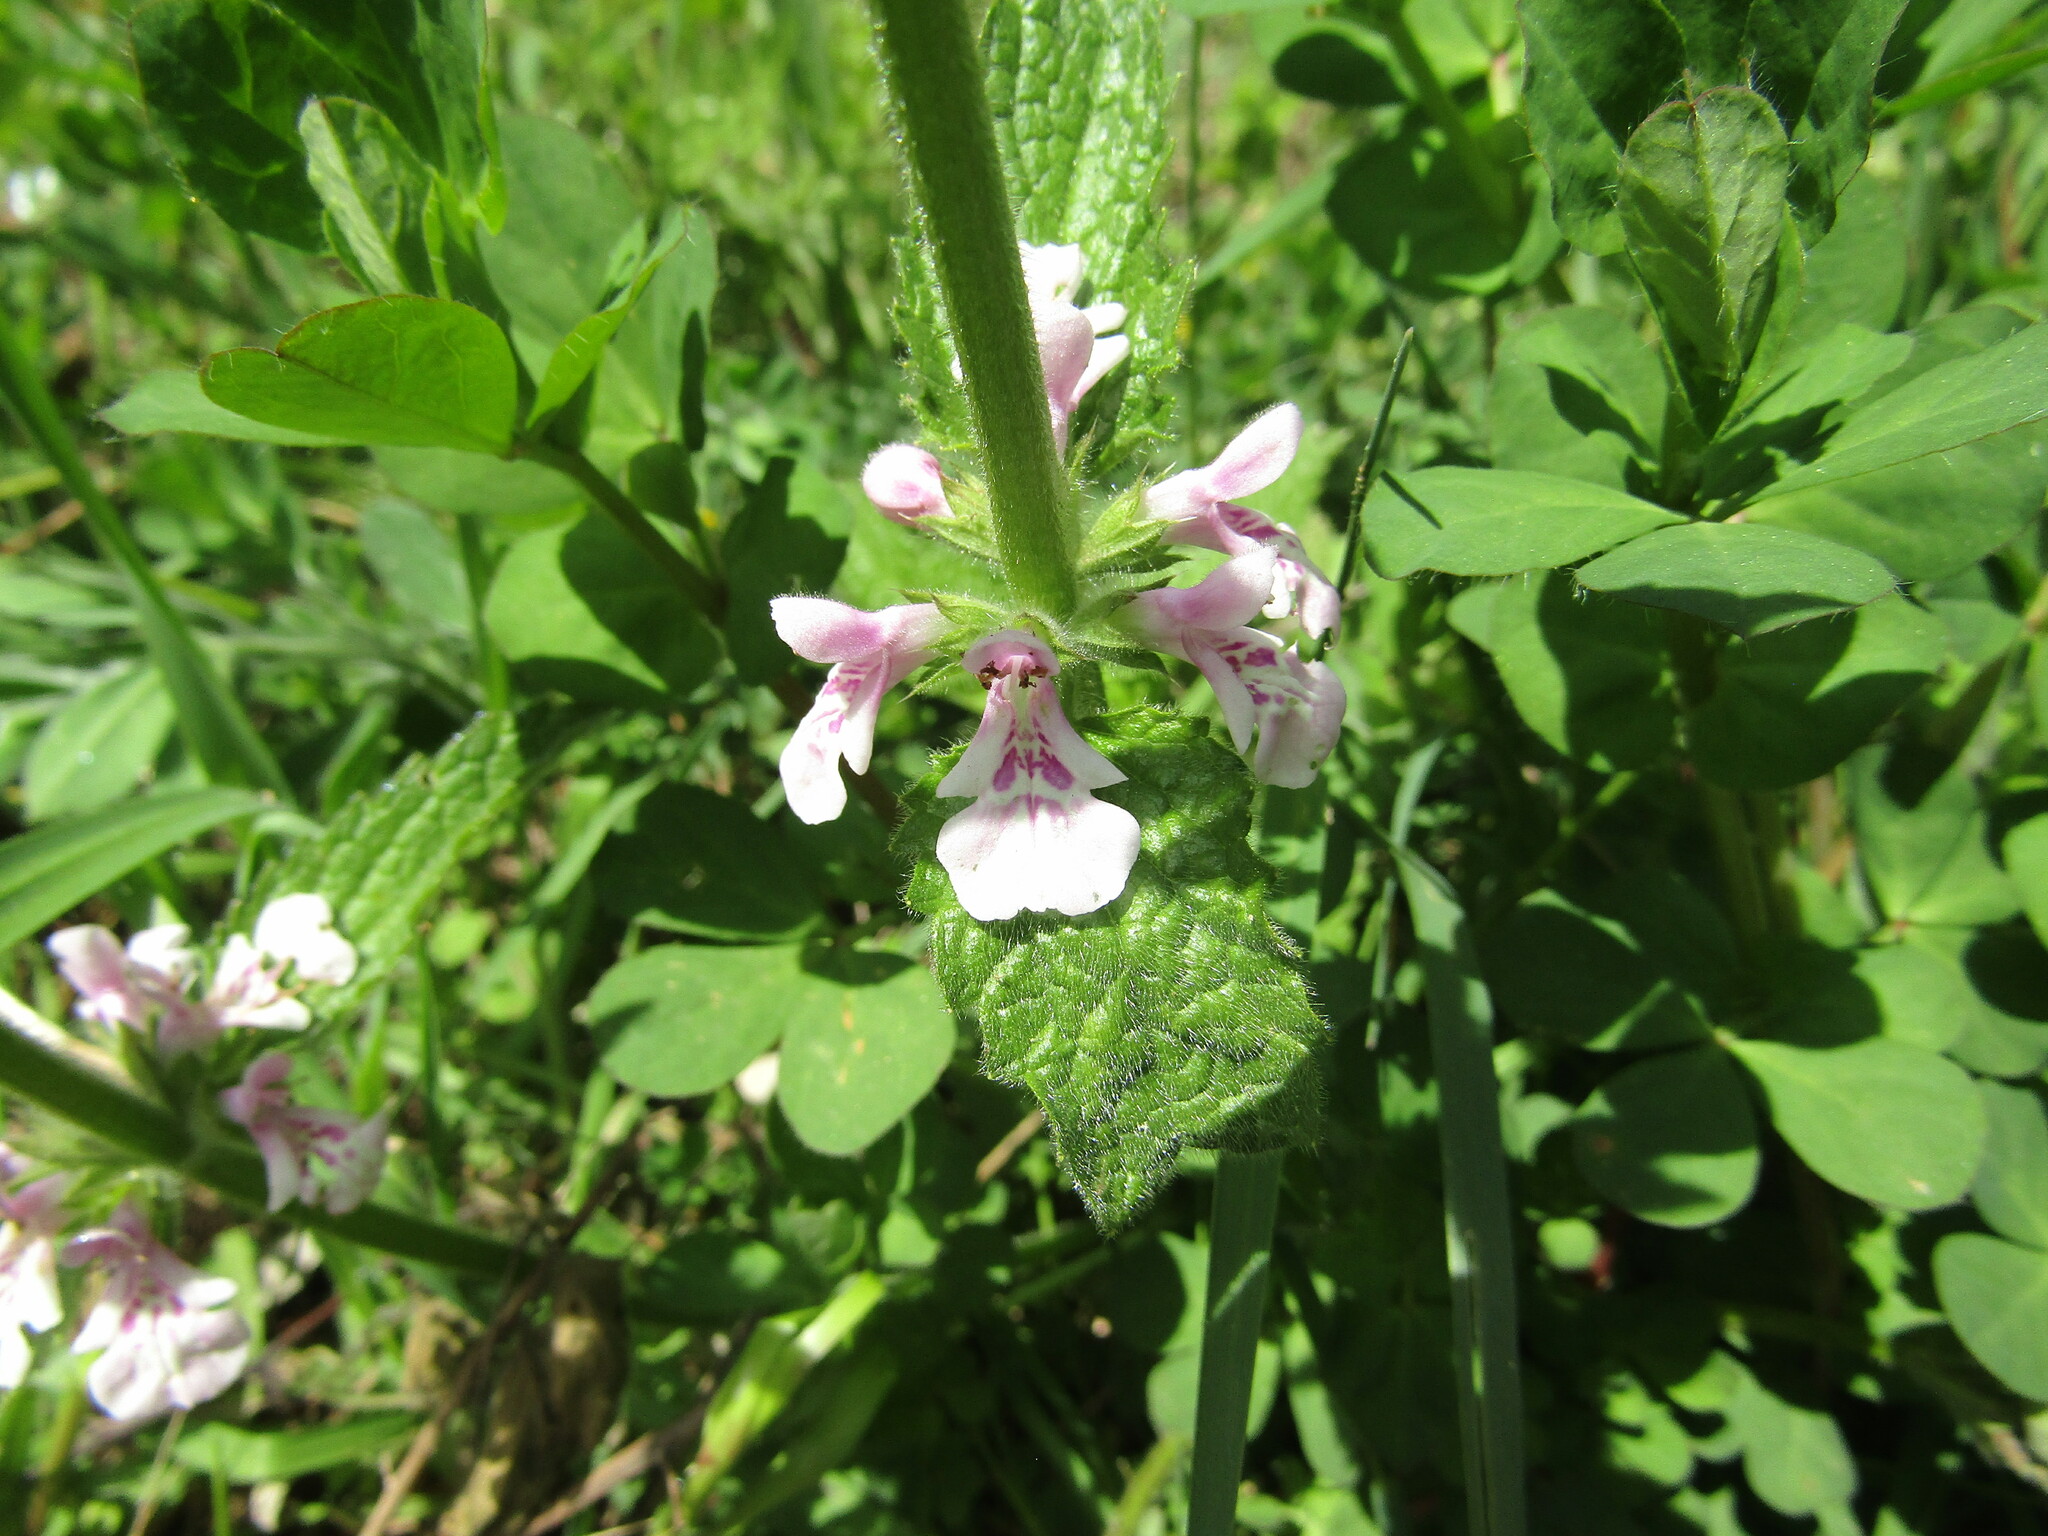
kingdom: Plantae
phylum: Tracheophyta
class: Magnoliopsida
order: Lamiales
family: Lamiaceae
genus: Stachys
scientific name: Stachys grandidentata
